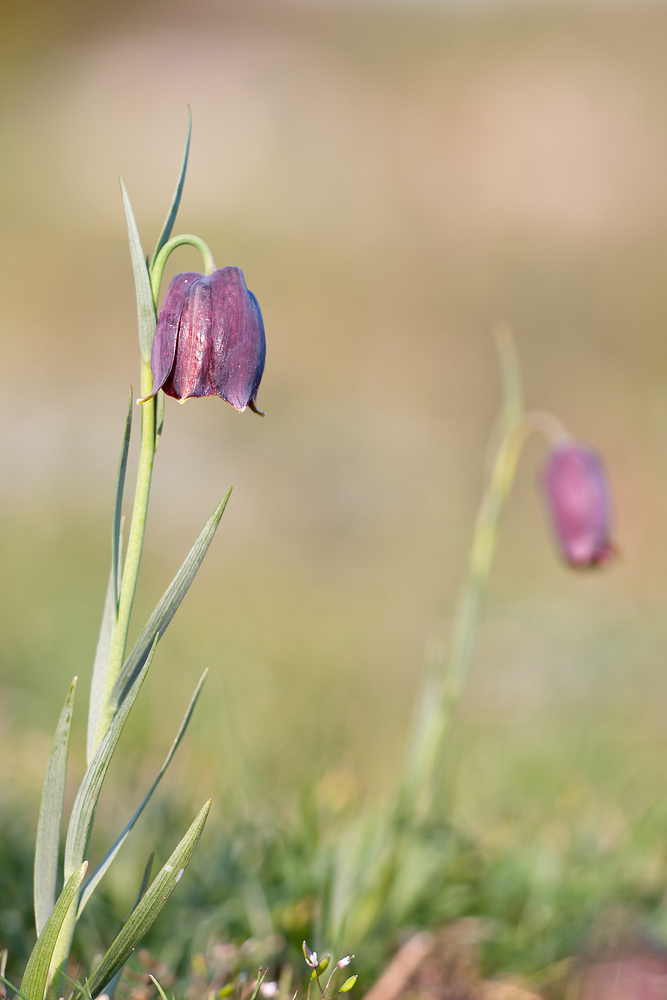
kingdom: Plantae
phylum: Tracheophyta
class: Liliopsida
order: Liliales
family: Liliaceae
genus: Fritillaria
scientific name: Fritillaria pyrenaica
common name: Pyrenean snake's-head
